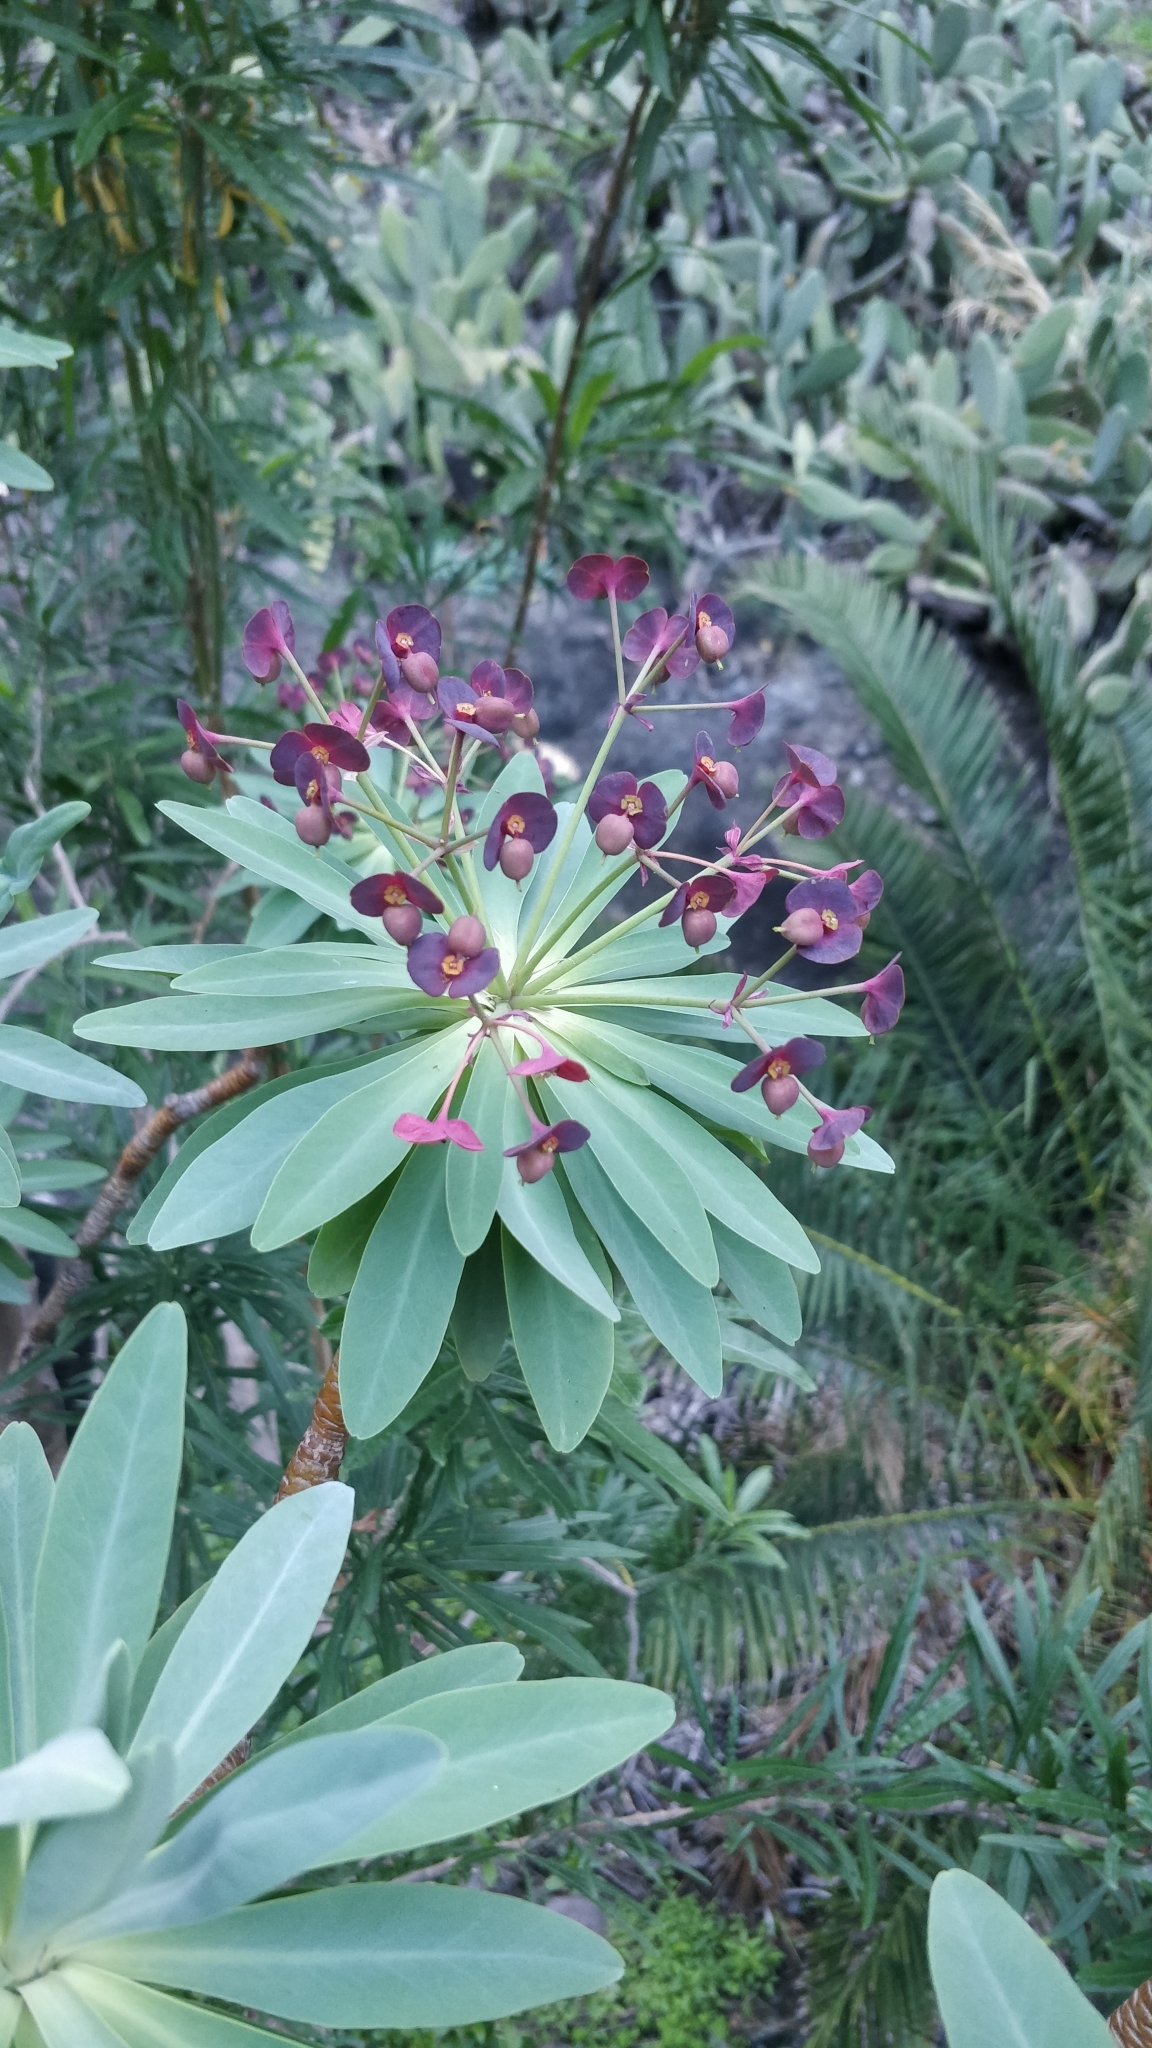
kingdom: Plantae
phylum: Tracheophyta
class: Magnoliopsida
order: Malpighiales
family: Euphorbiaceae
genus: Euphorbia
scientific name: Euphorbia atropurpurea
